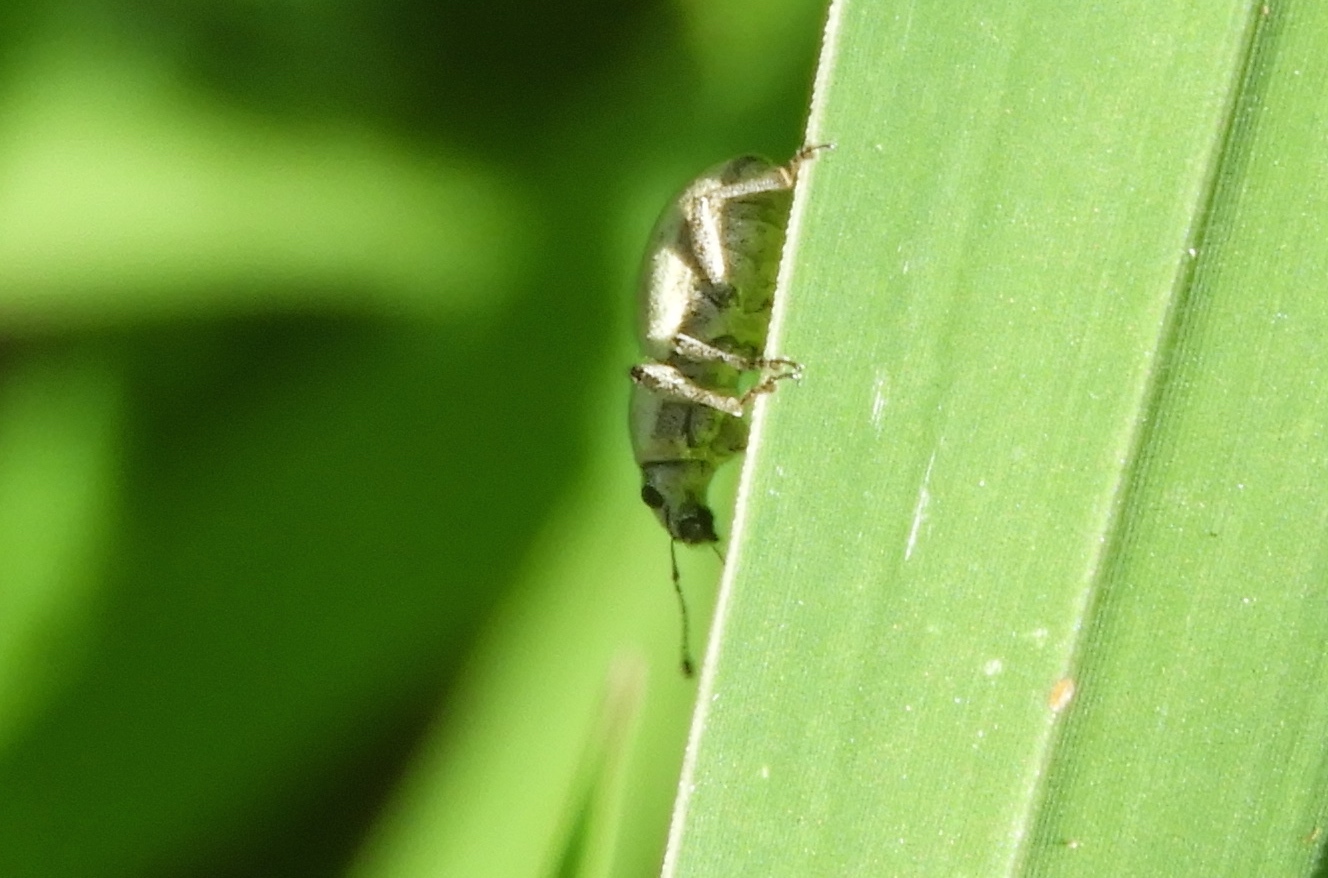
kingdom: Animalia
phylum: Arthropoda
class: Insecta
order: Coleoptera
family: Curculionidae
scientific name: Curculionidae
